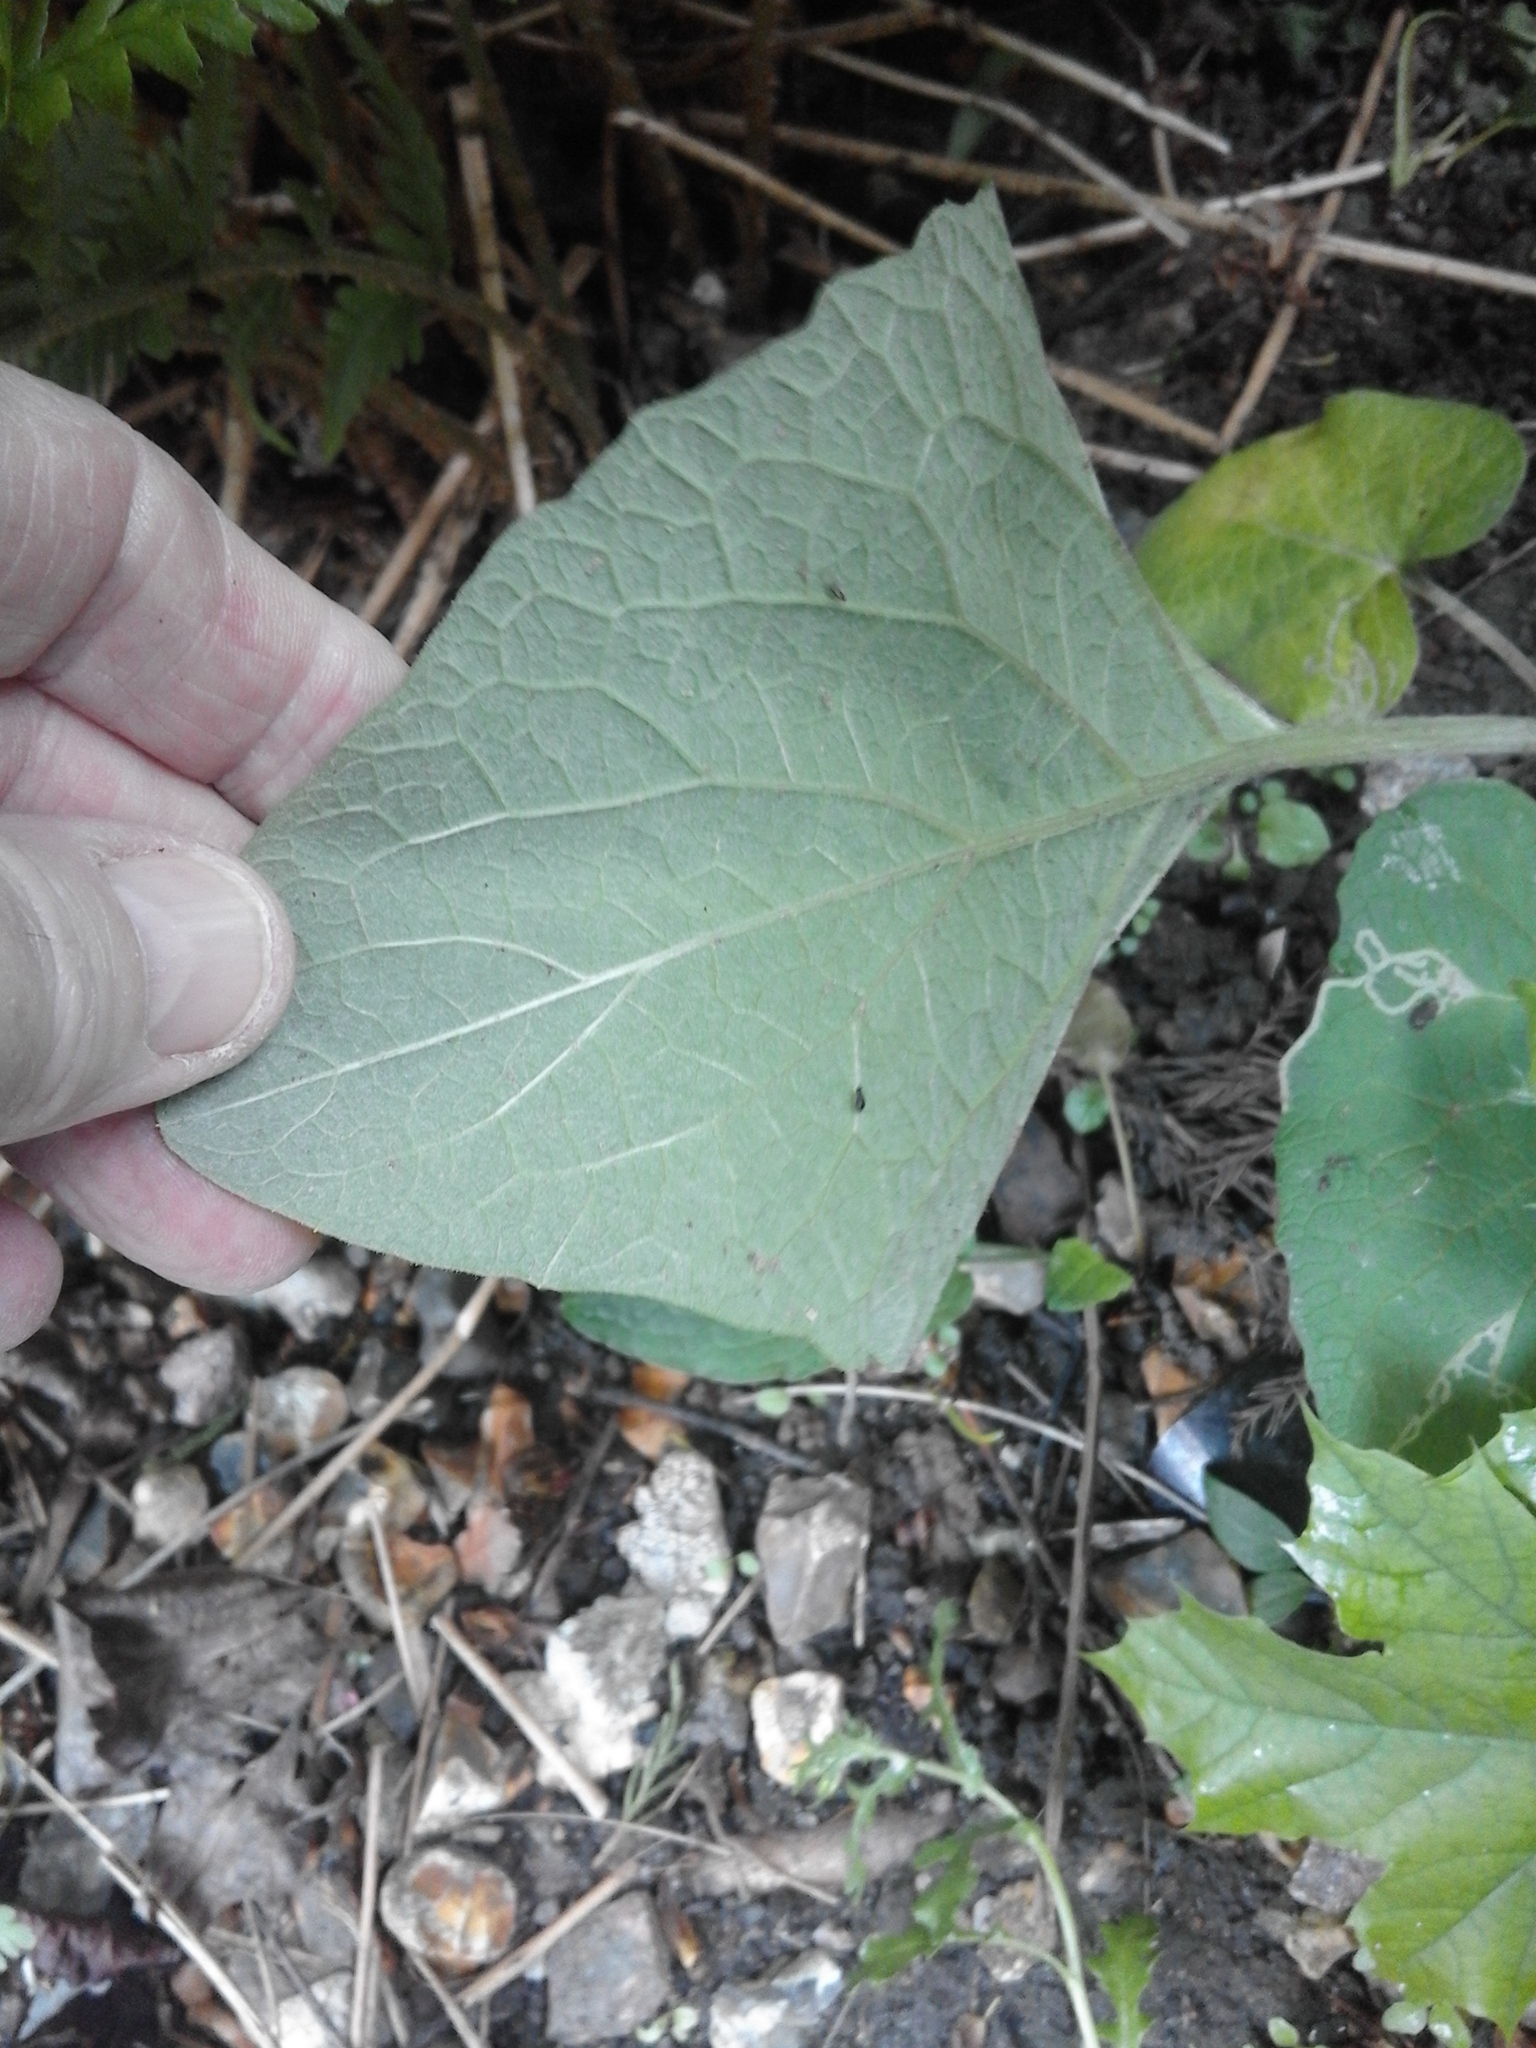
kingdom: Plantae
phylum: Tracheophyta
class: Magnoliopsida
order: Asterales
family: Asteraceae
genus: Arctium
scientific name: Arctium minus
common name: Lesser burdock
